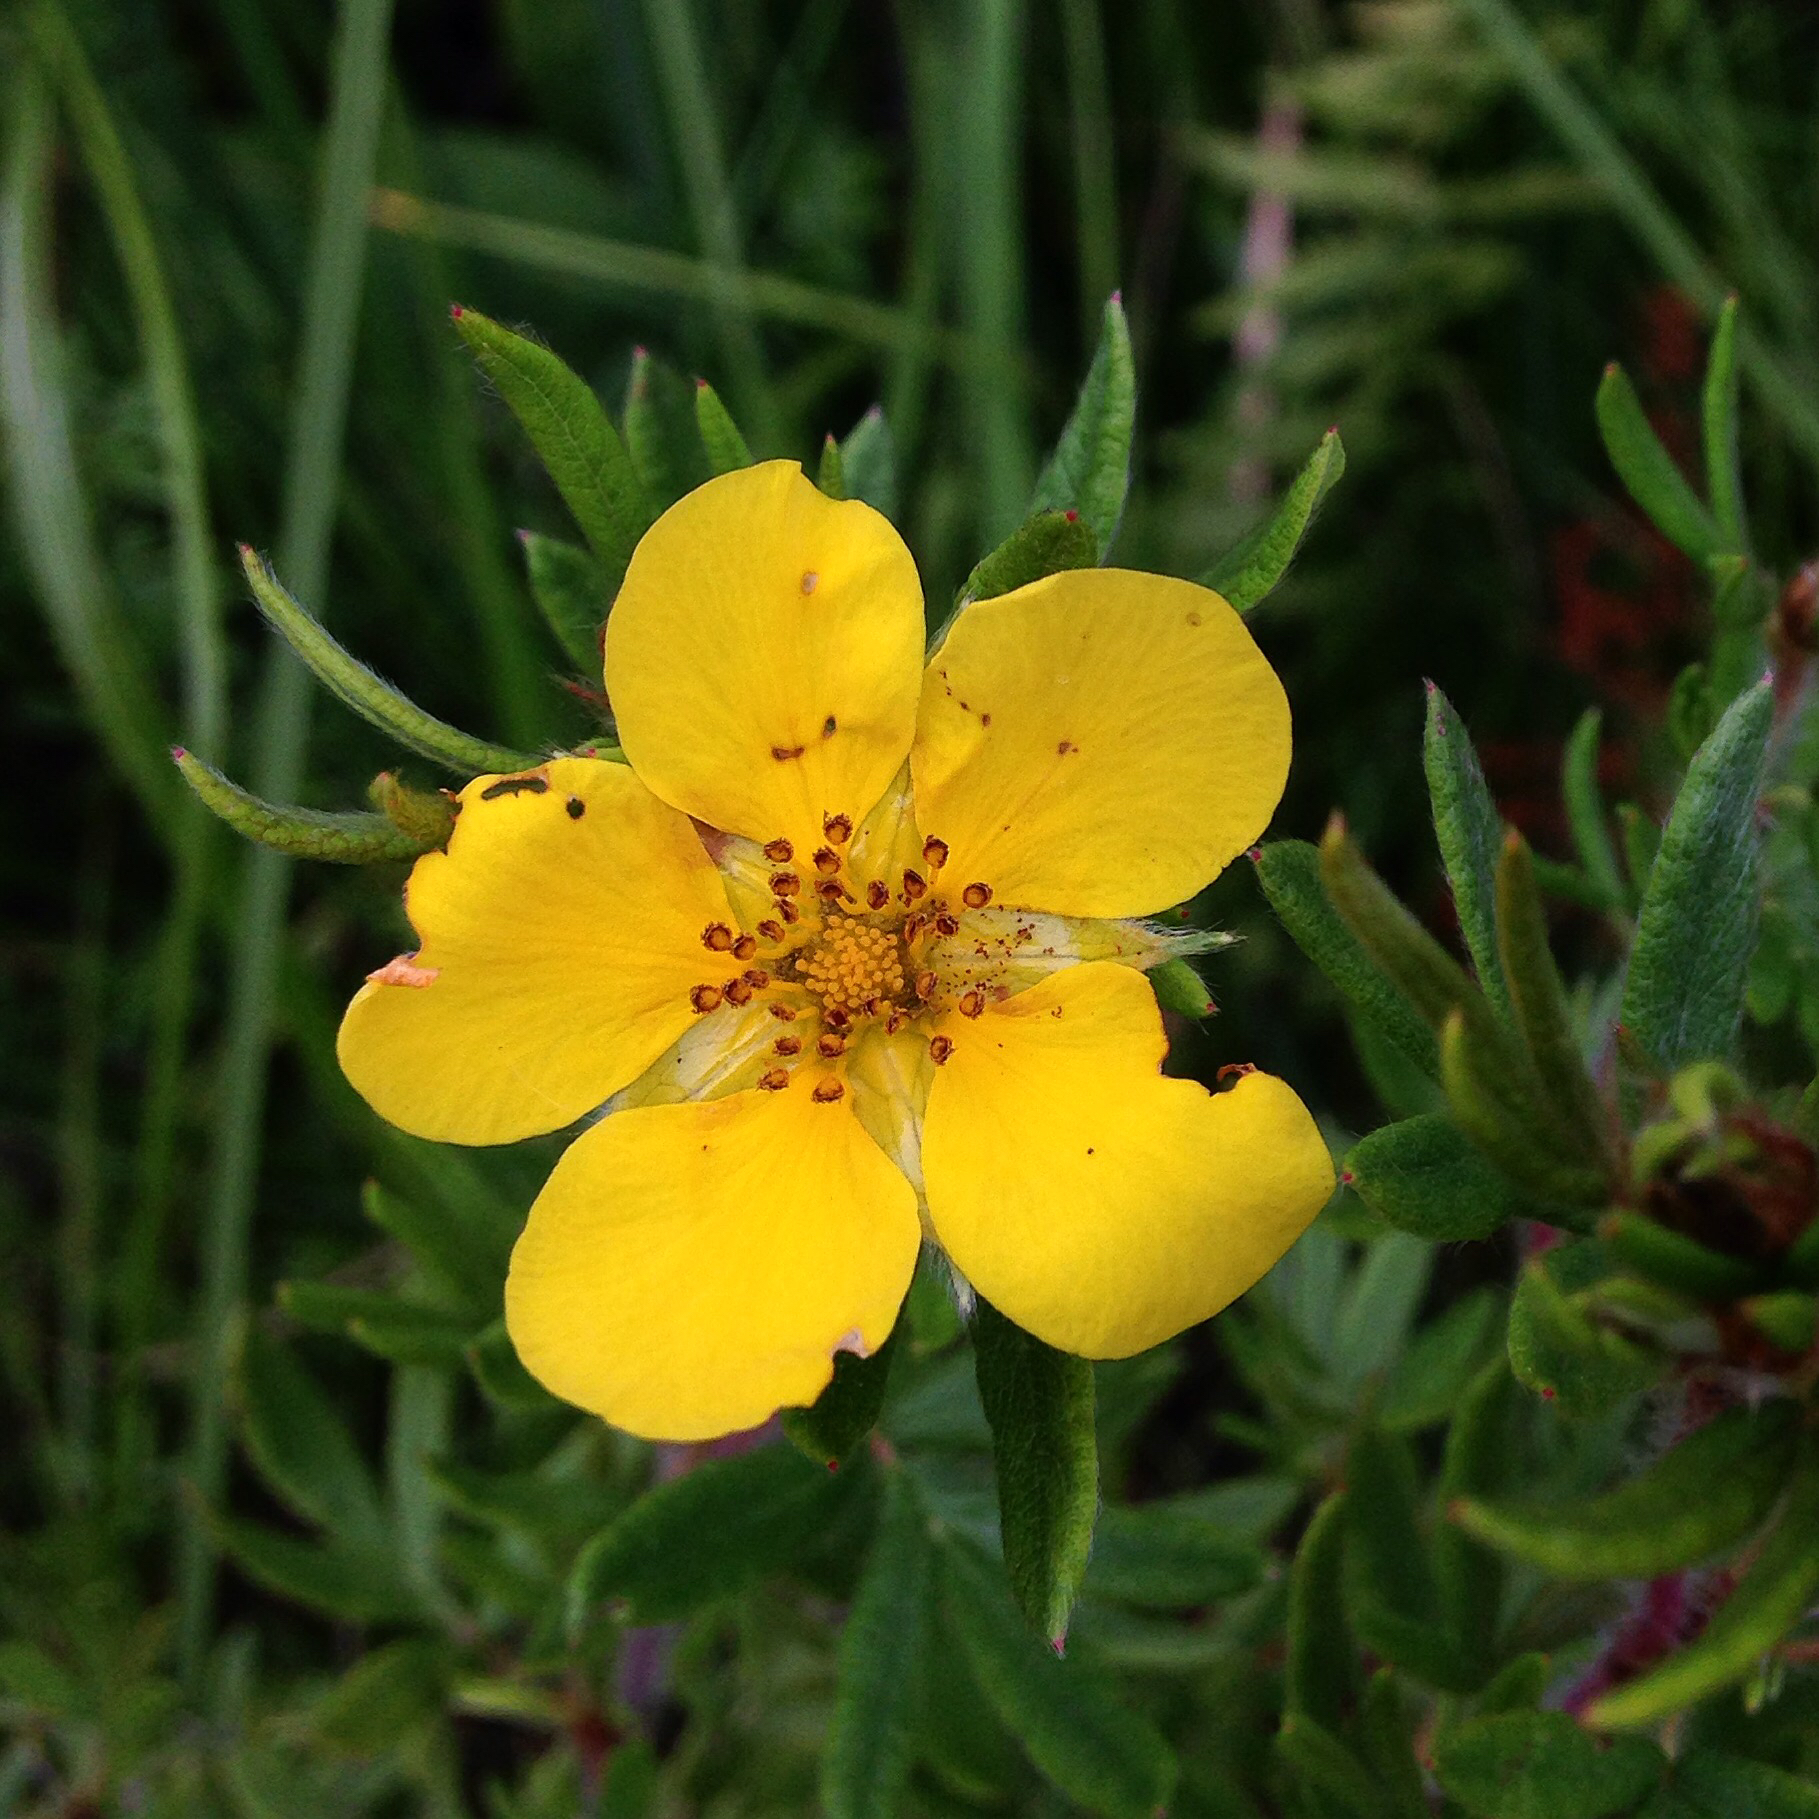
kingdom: Plantae
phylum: Tracheophyta
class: Magnoliopsida
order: Rosales
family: Rosaceae
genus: Dasiphora
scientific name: Dasiphora fruticosa
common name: Shrubby cinquefoil
